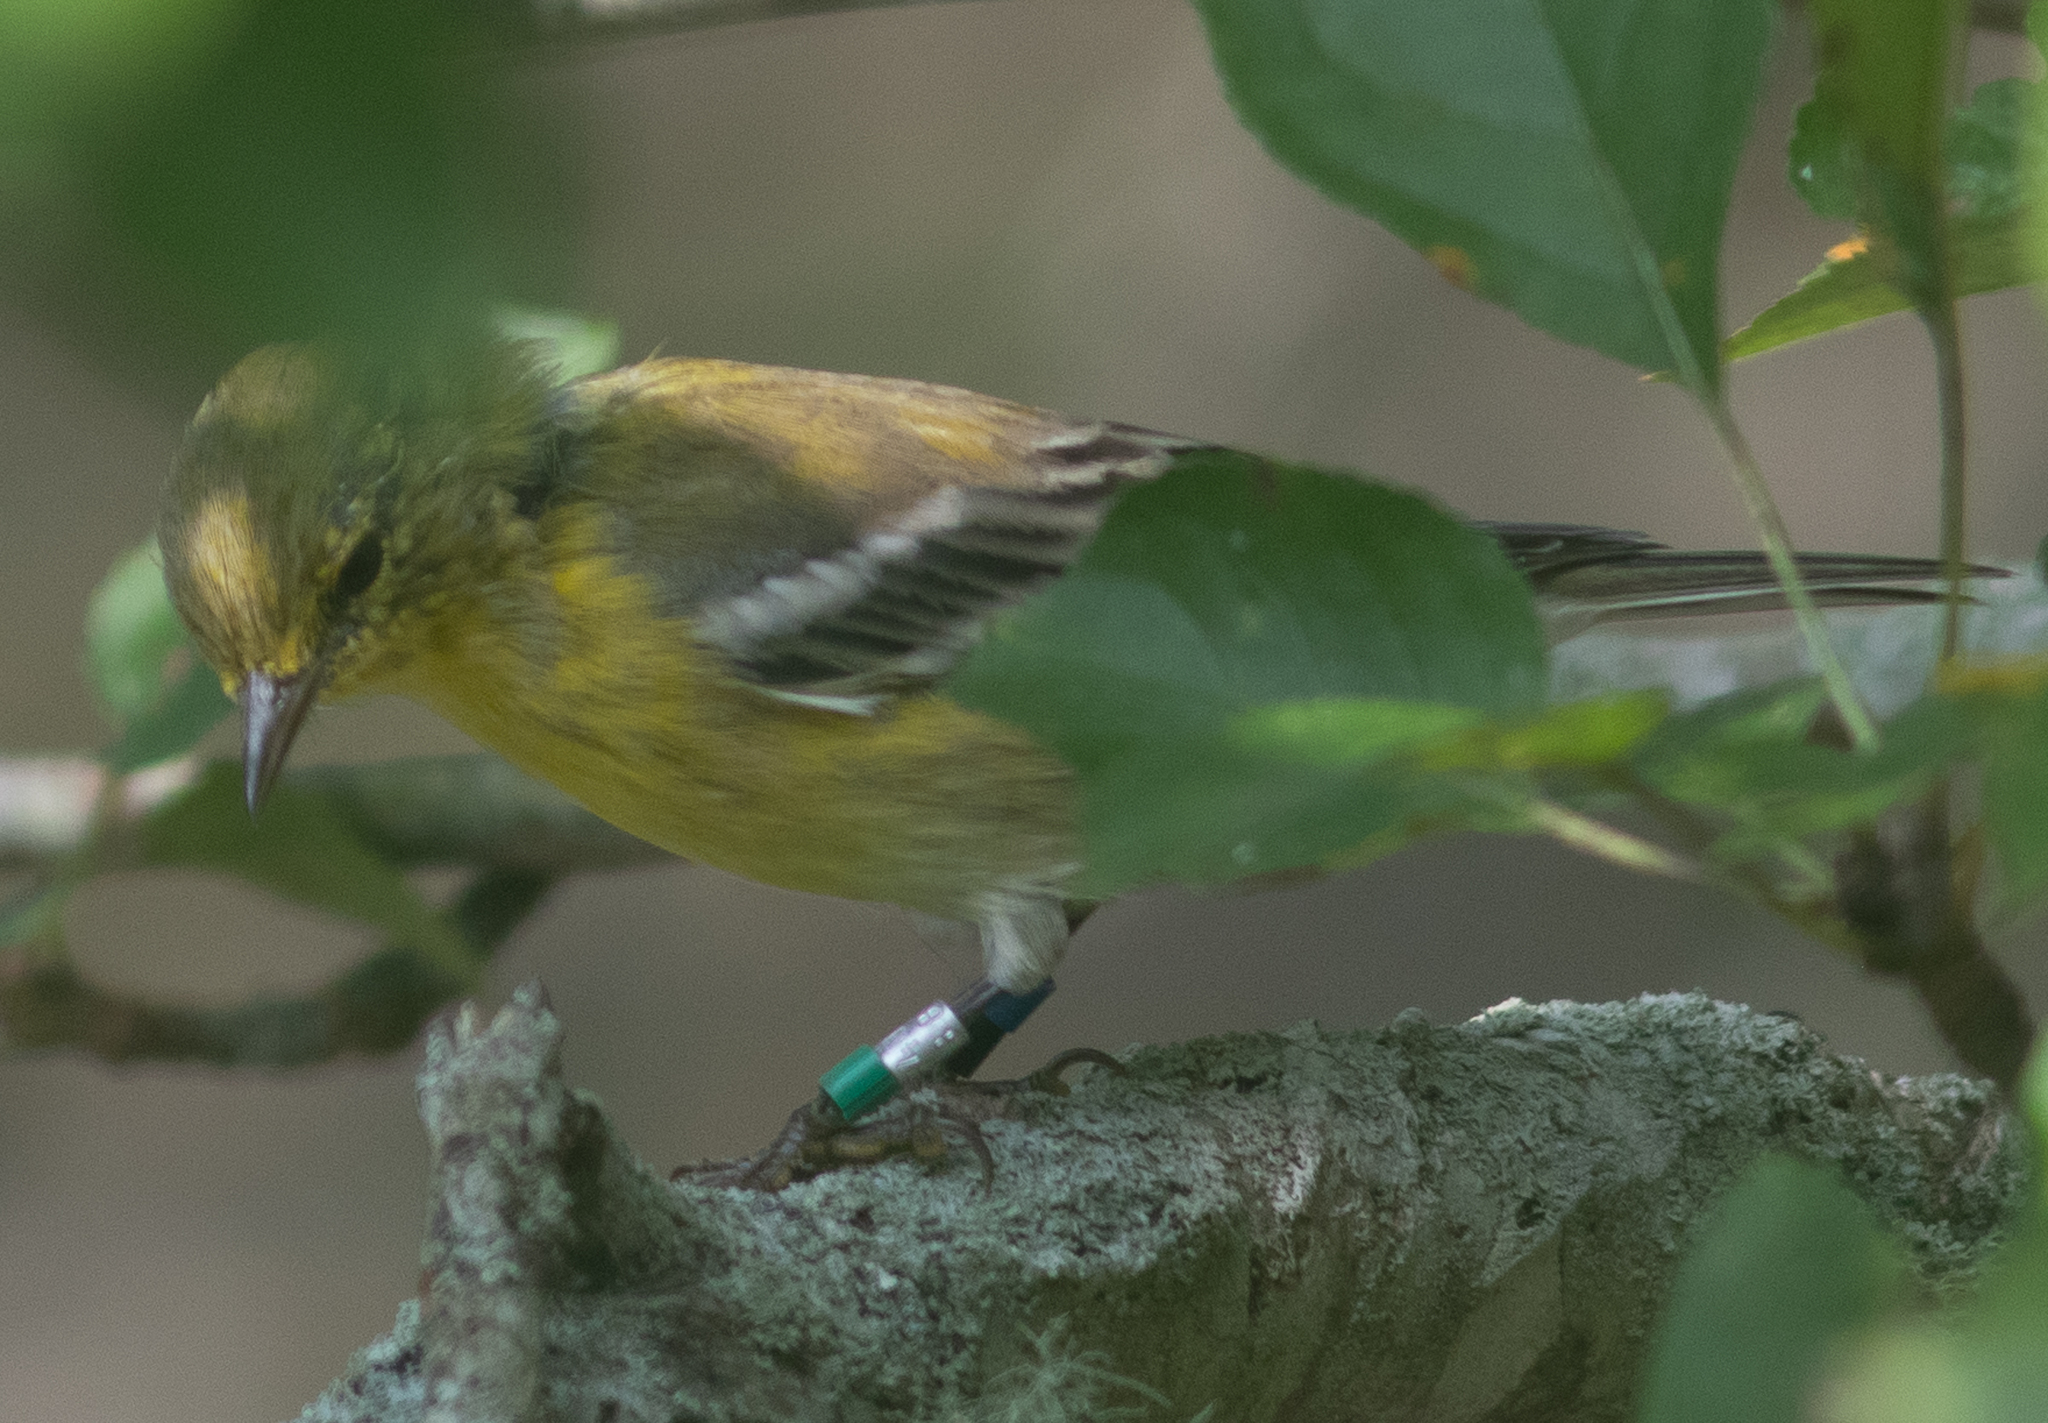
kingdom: Animalia
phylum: Chordata
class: Aves
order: Passeriformes
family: Parulidae
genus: Setophaga
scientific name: Setophaga pinus
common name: Pine warbler
